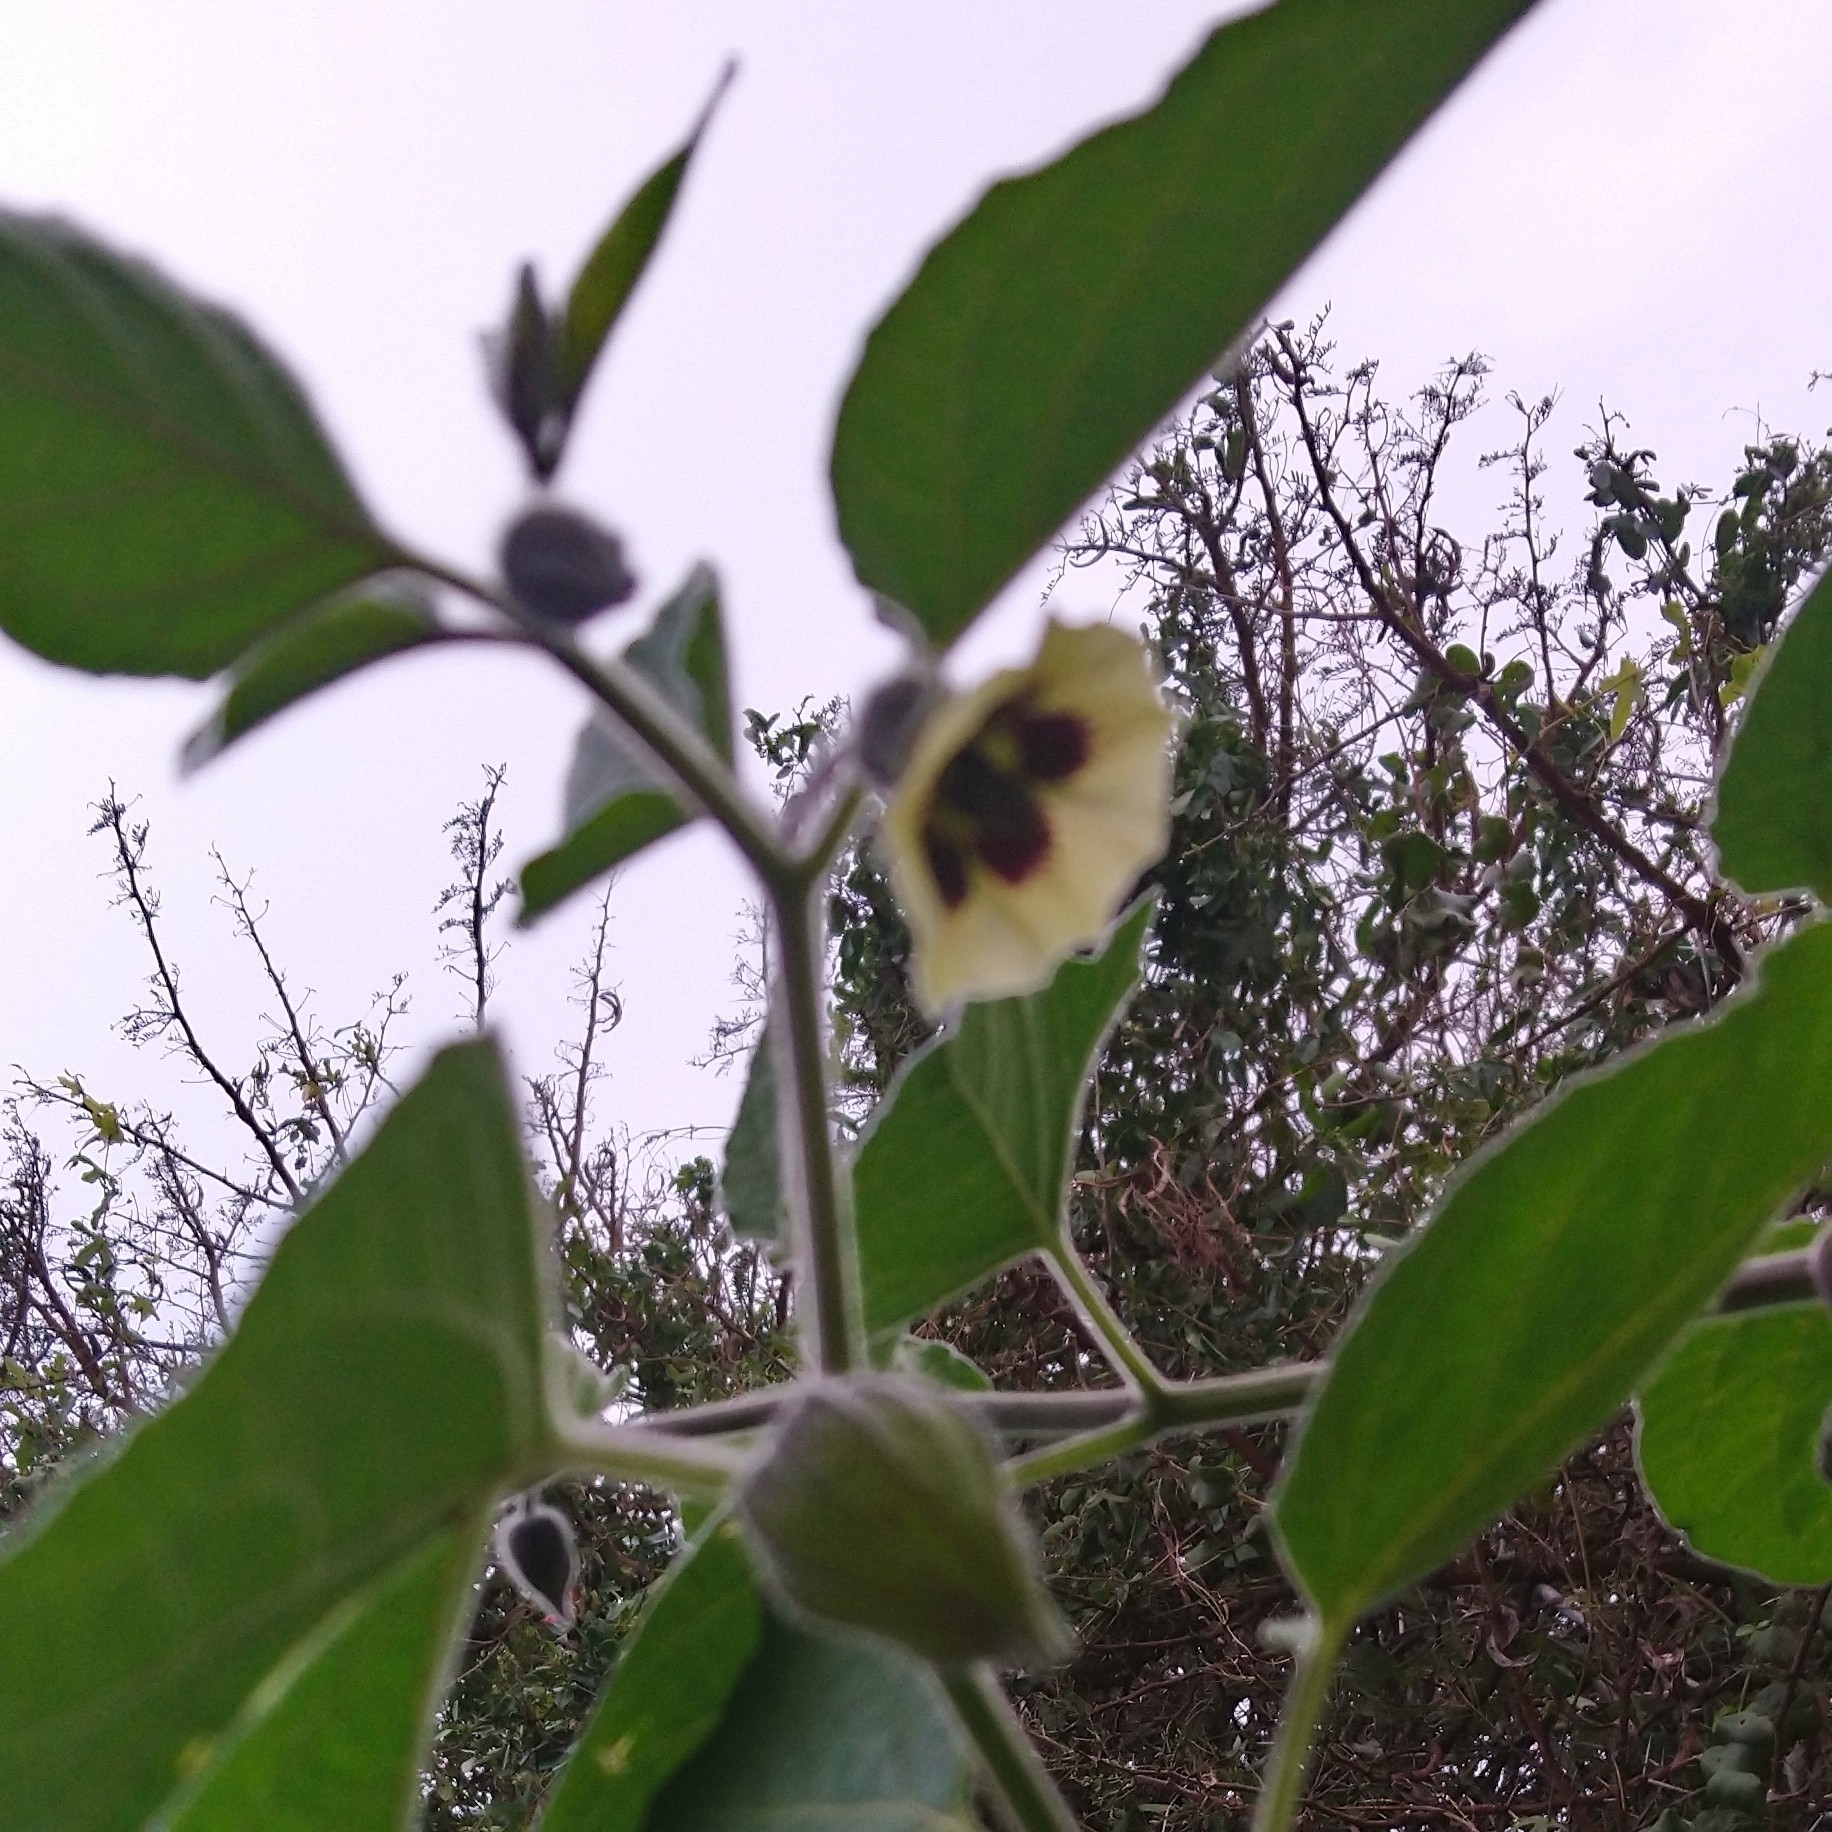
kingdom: Plantae
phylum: Tracheophyta
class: Magnoliopsida
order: Solanales
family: Solanaceae
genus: Physalis
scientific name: Physalis peruviana
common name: Cape-gooseberry
